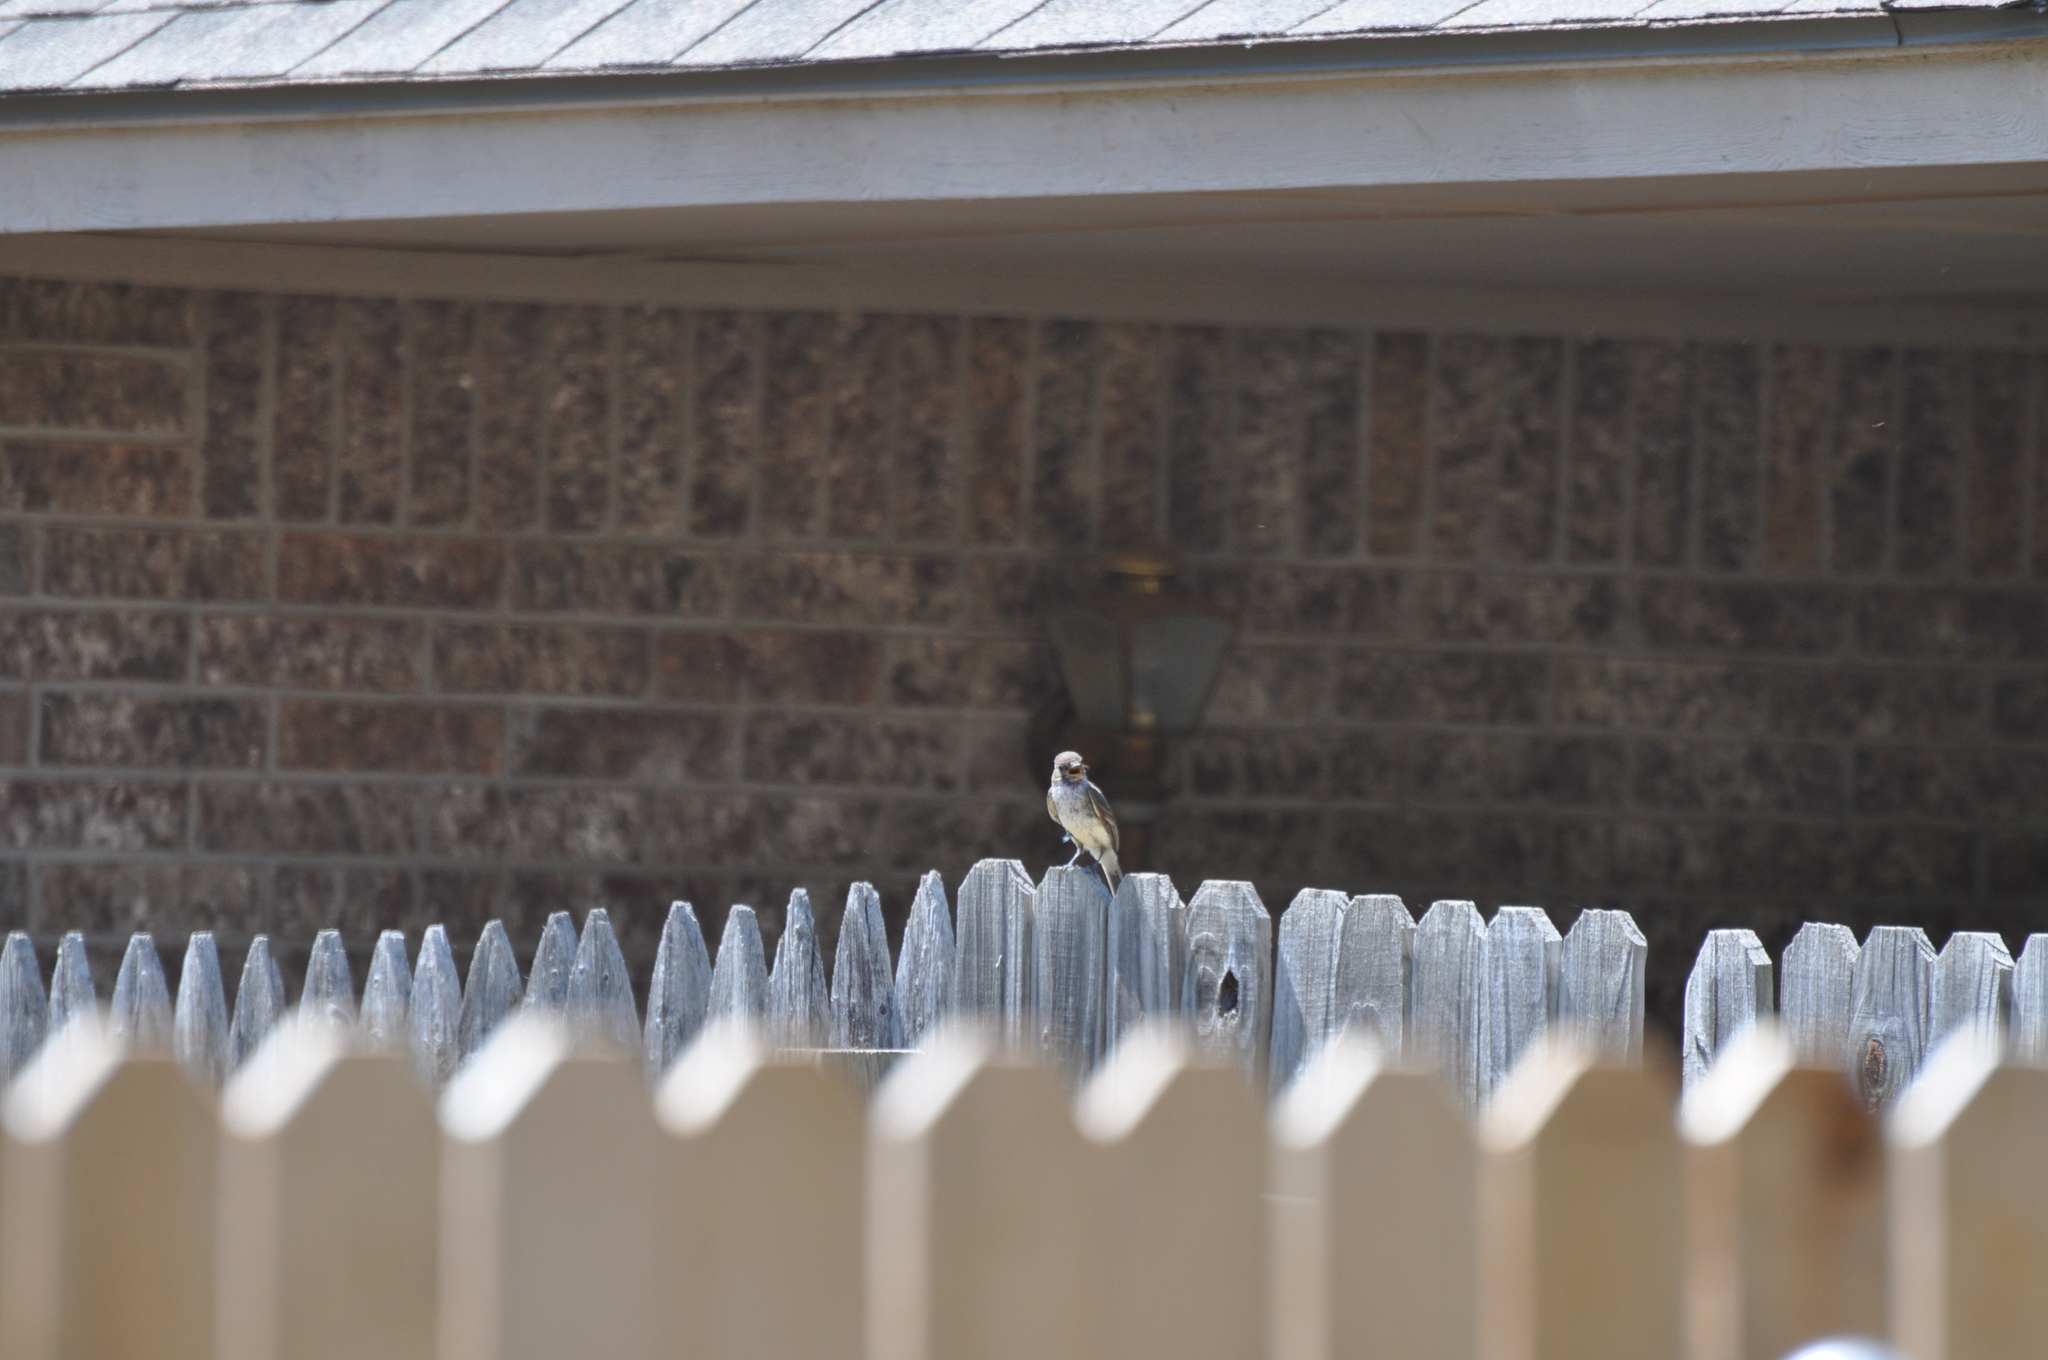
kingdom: Animalia
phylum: Chordata
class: Aves
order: Passeriformes
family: Tyrannidae
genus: Sayornis
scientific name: Sayornis phoebe
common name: Eastern phoebe
